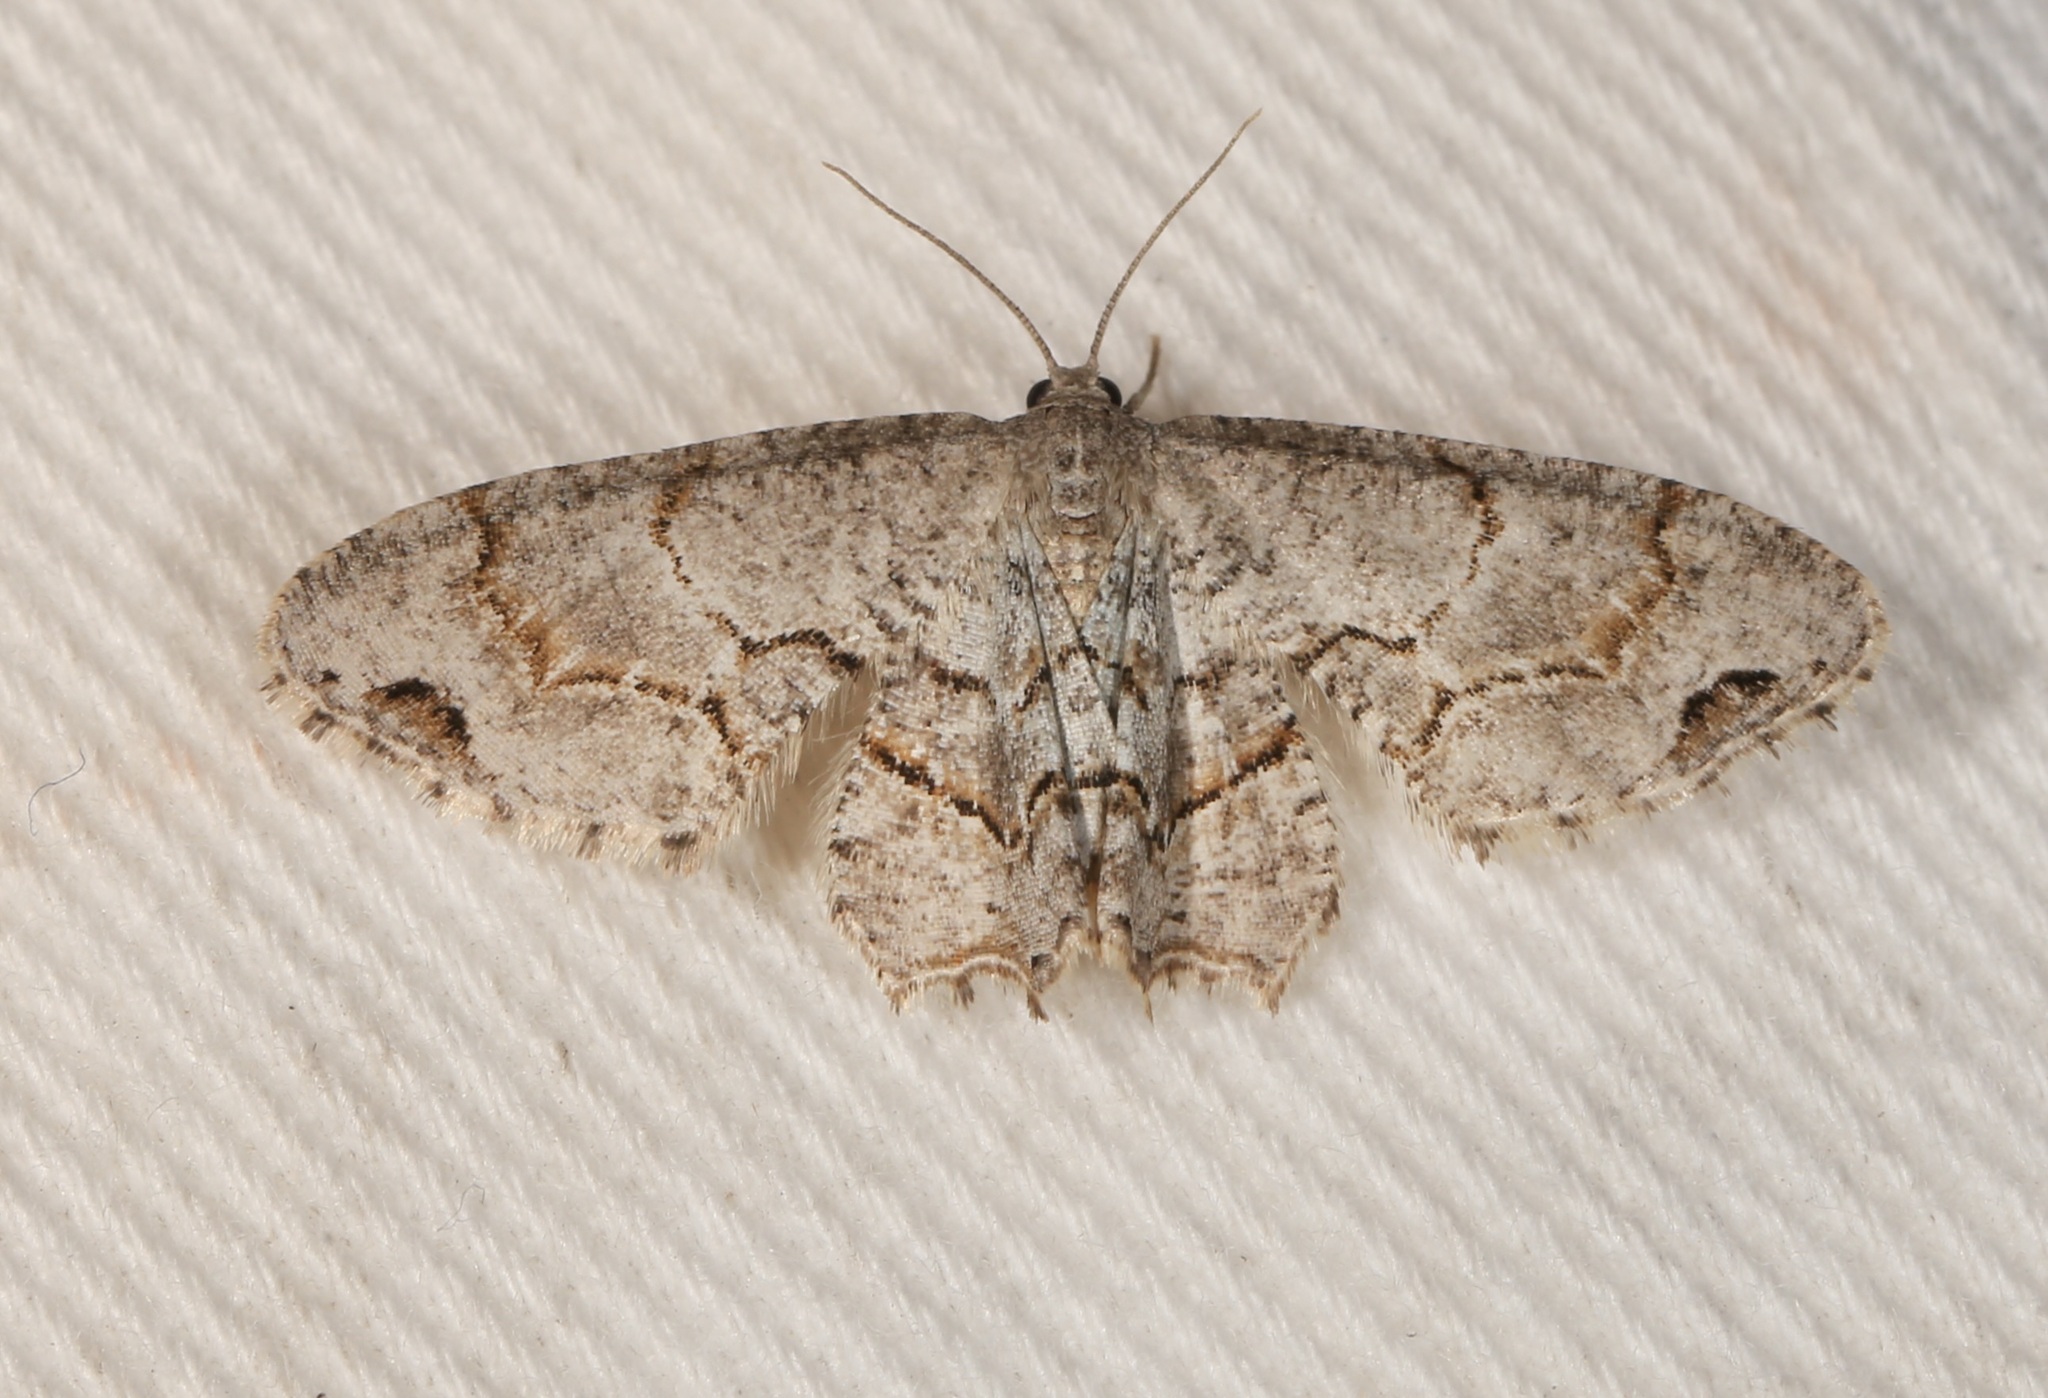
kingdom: Animalia
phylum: Arthropoda
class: Insecta
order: Lepidoptera
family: Uraniidae
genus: Epiplema
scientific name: Epiplema Callizzia amorata
